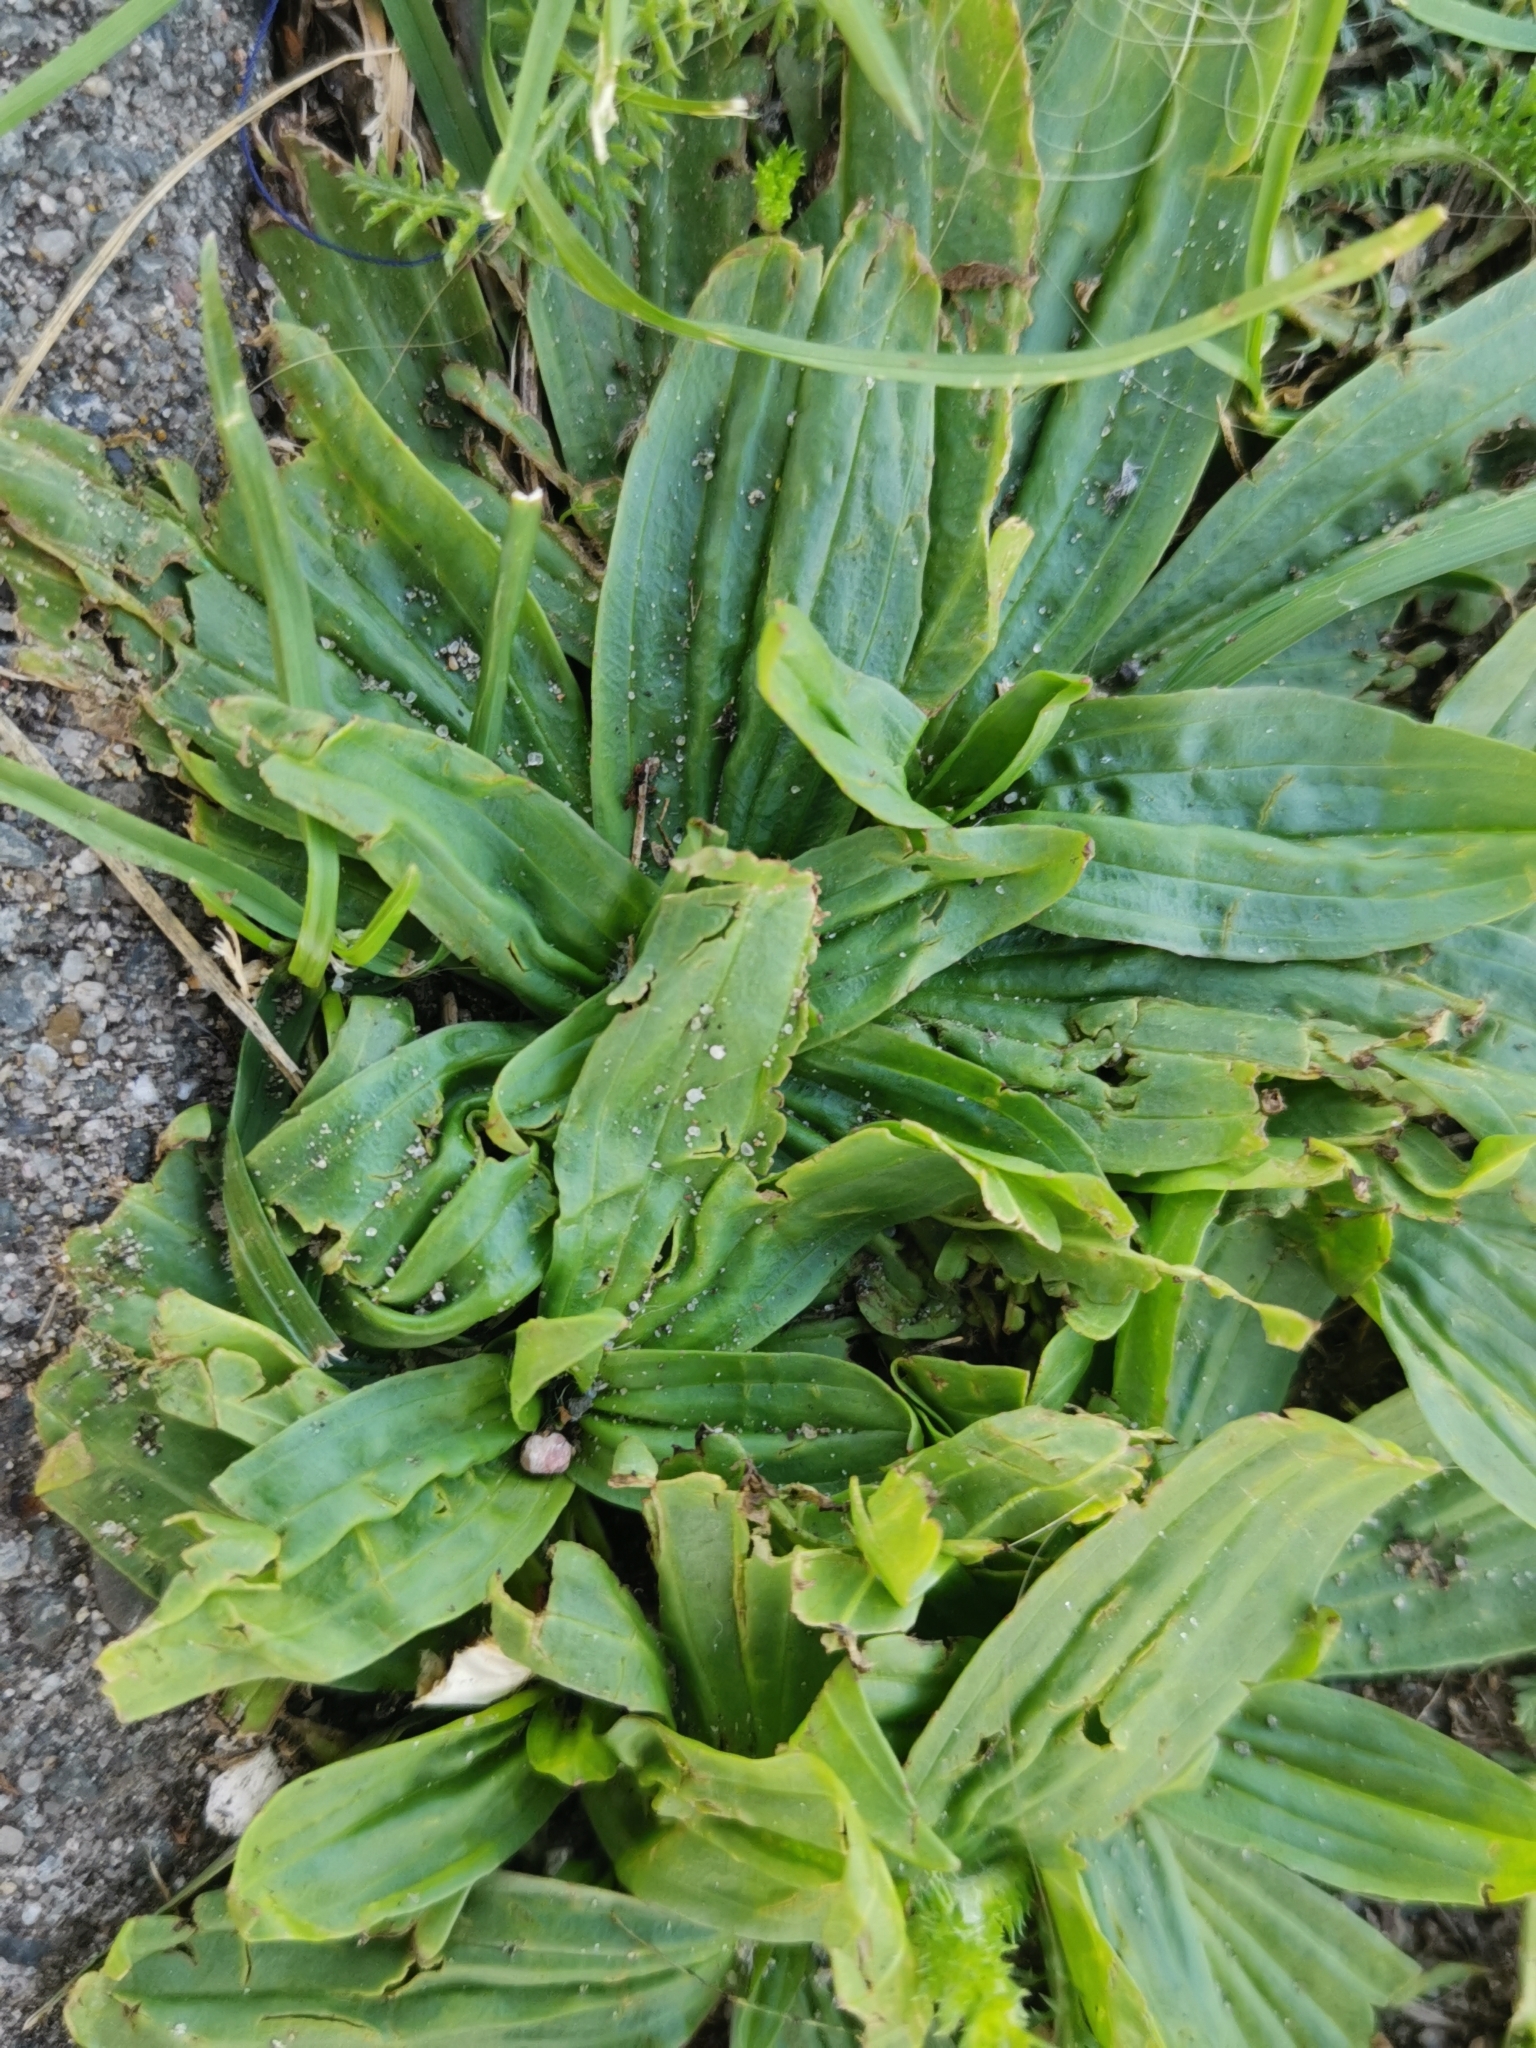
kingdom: Plantae
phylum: Tracheophyta
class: Magnoliopsida
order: Lamiales
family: Plantaginaceae
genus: Plantago
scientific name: Plantago lanceolata
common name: Ribwort plantain
